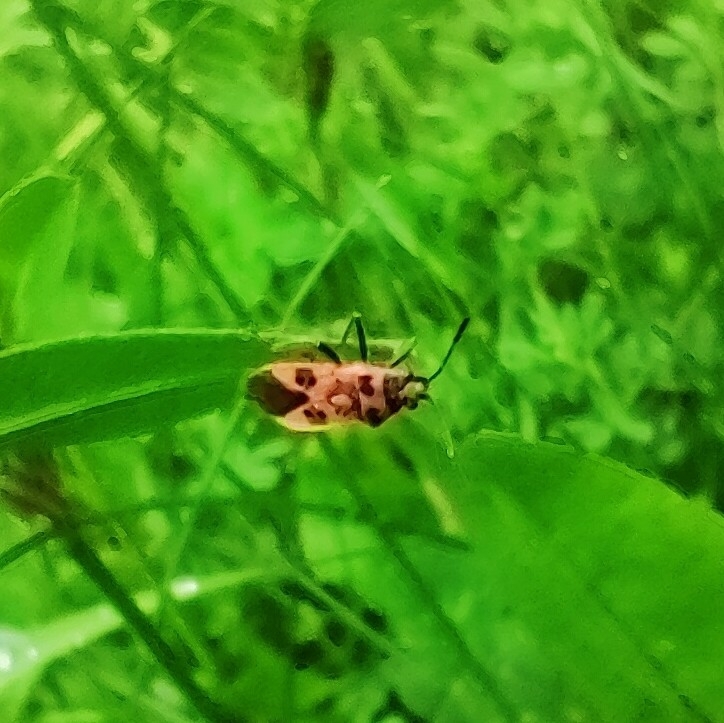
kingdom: Animalia
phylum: Arthropoda
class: Insecta
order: Hemiptera
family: Rhopalidae
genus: Corizus
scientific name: Corizus hyoscyami
